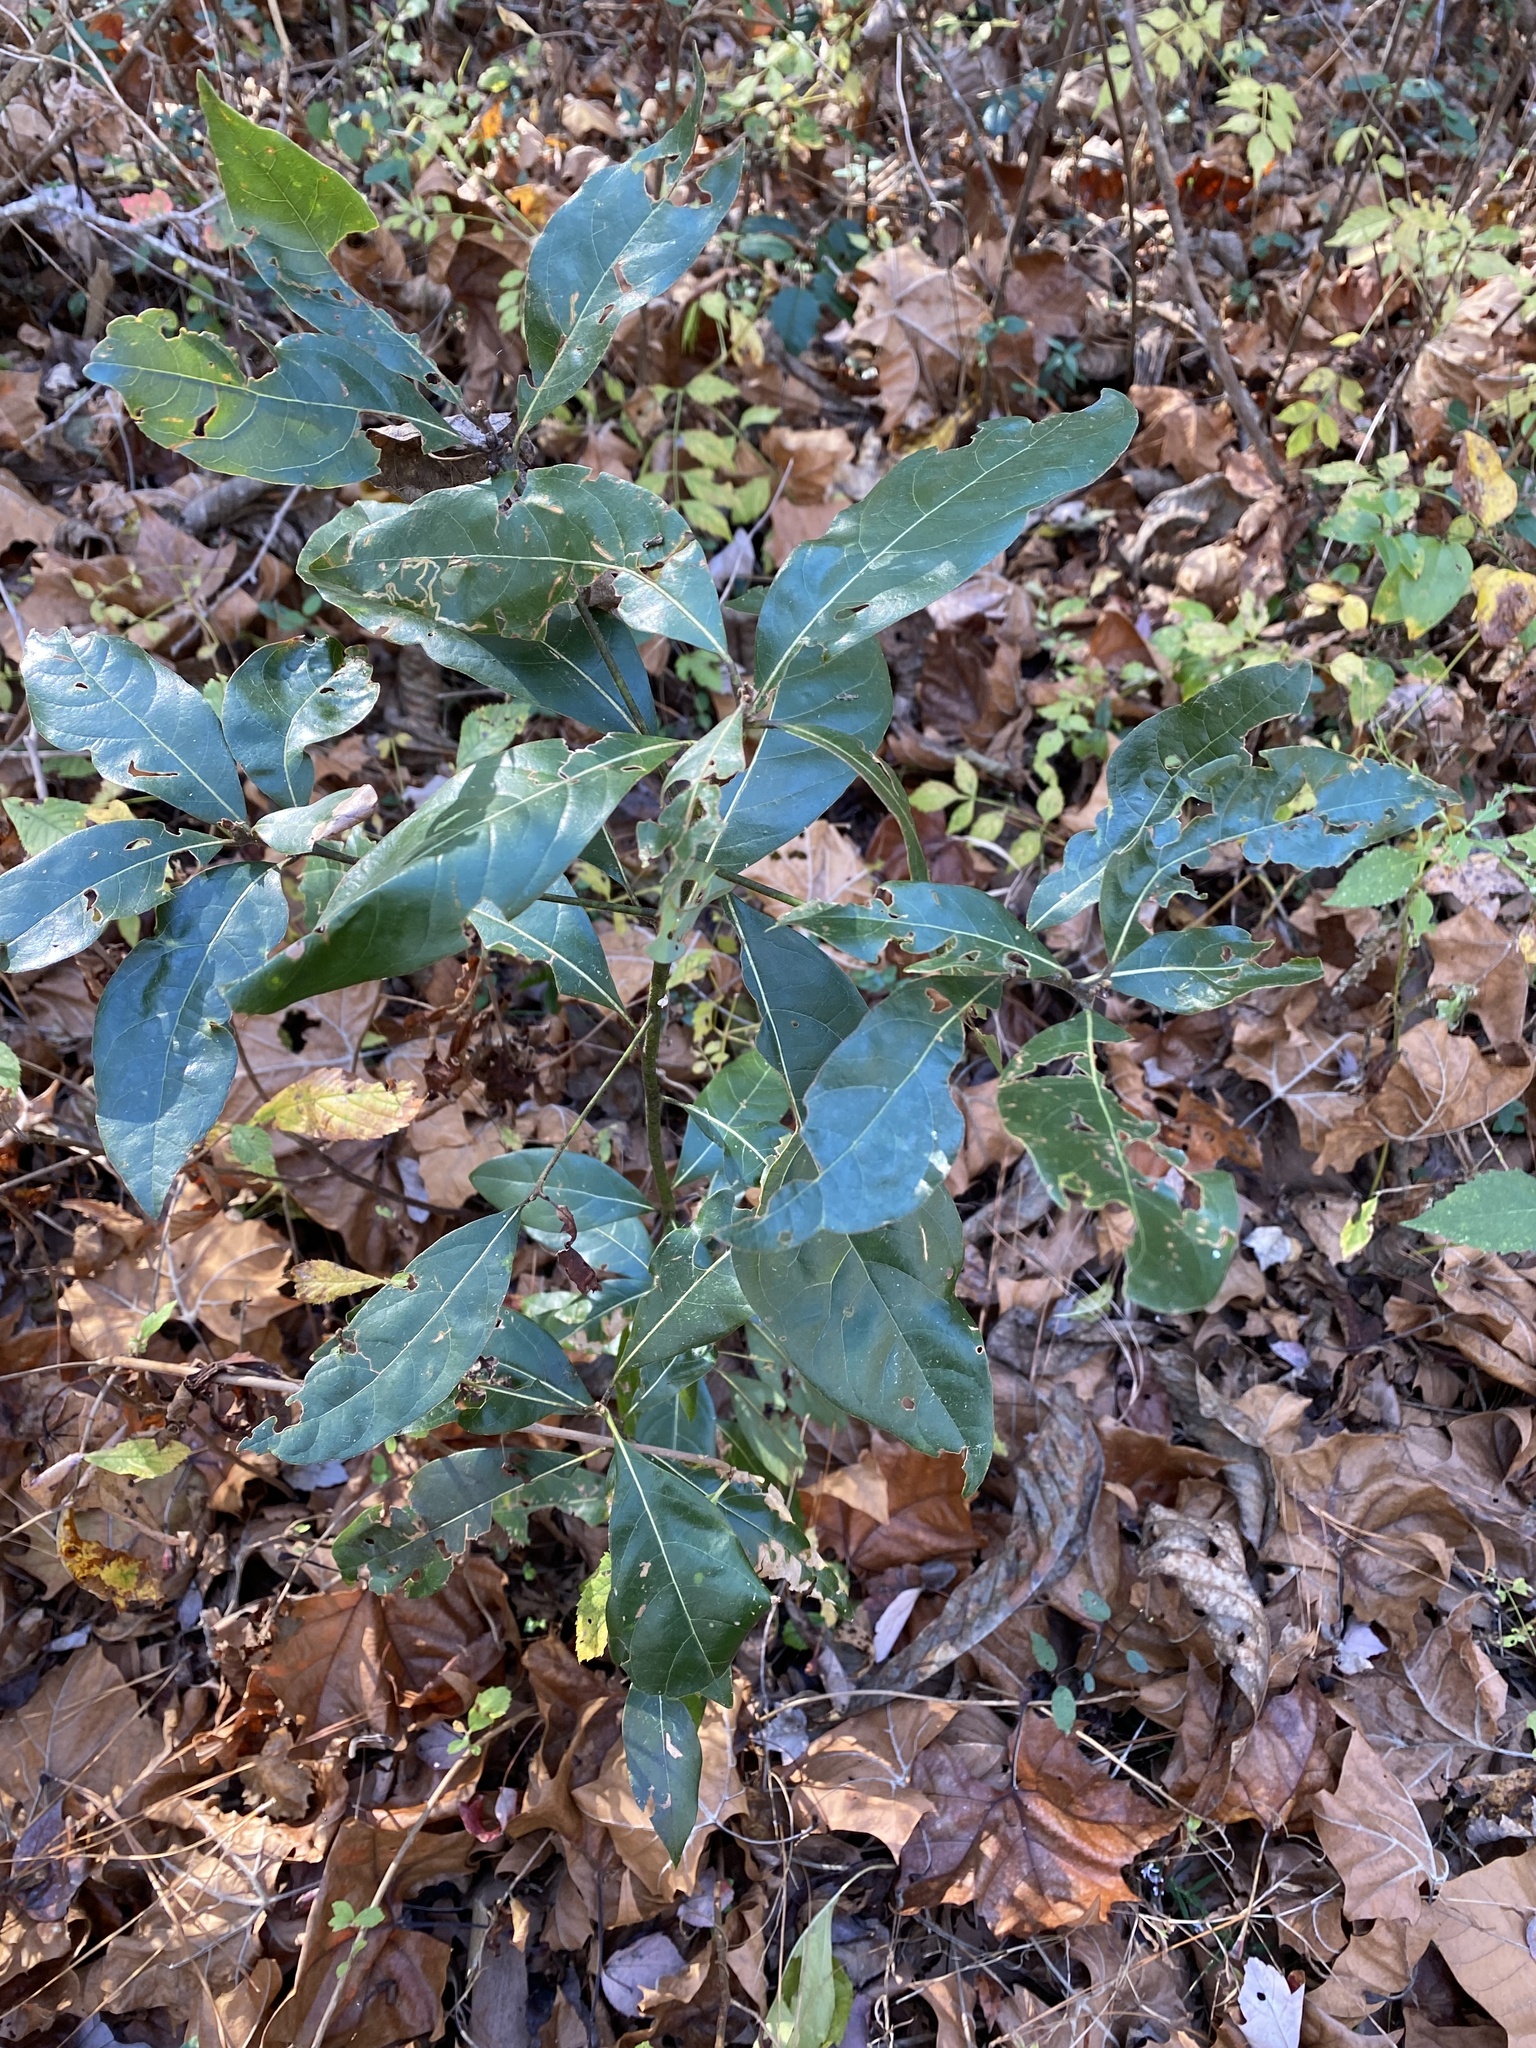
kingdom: Animalia
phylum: Arthropoda
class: Insecta
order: Lepidoptera
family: Gracillariidae
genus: Phyllocnistis
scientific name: Phyllocnistis hyperpersea
